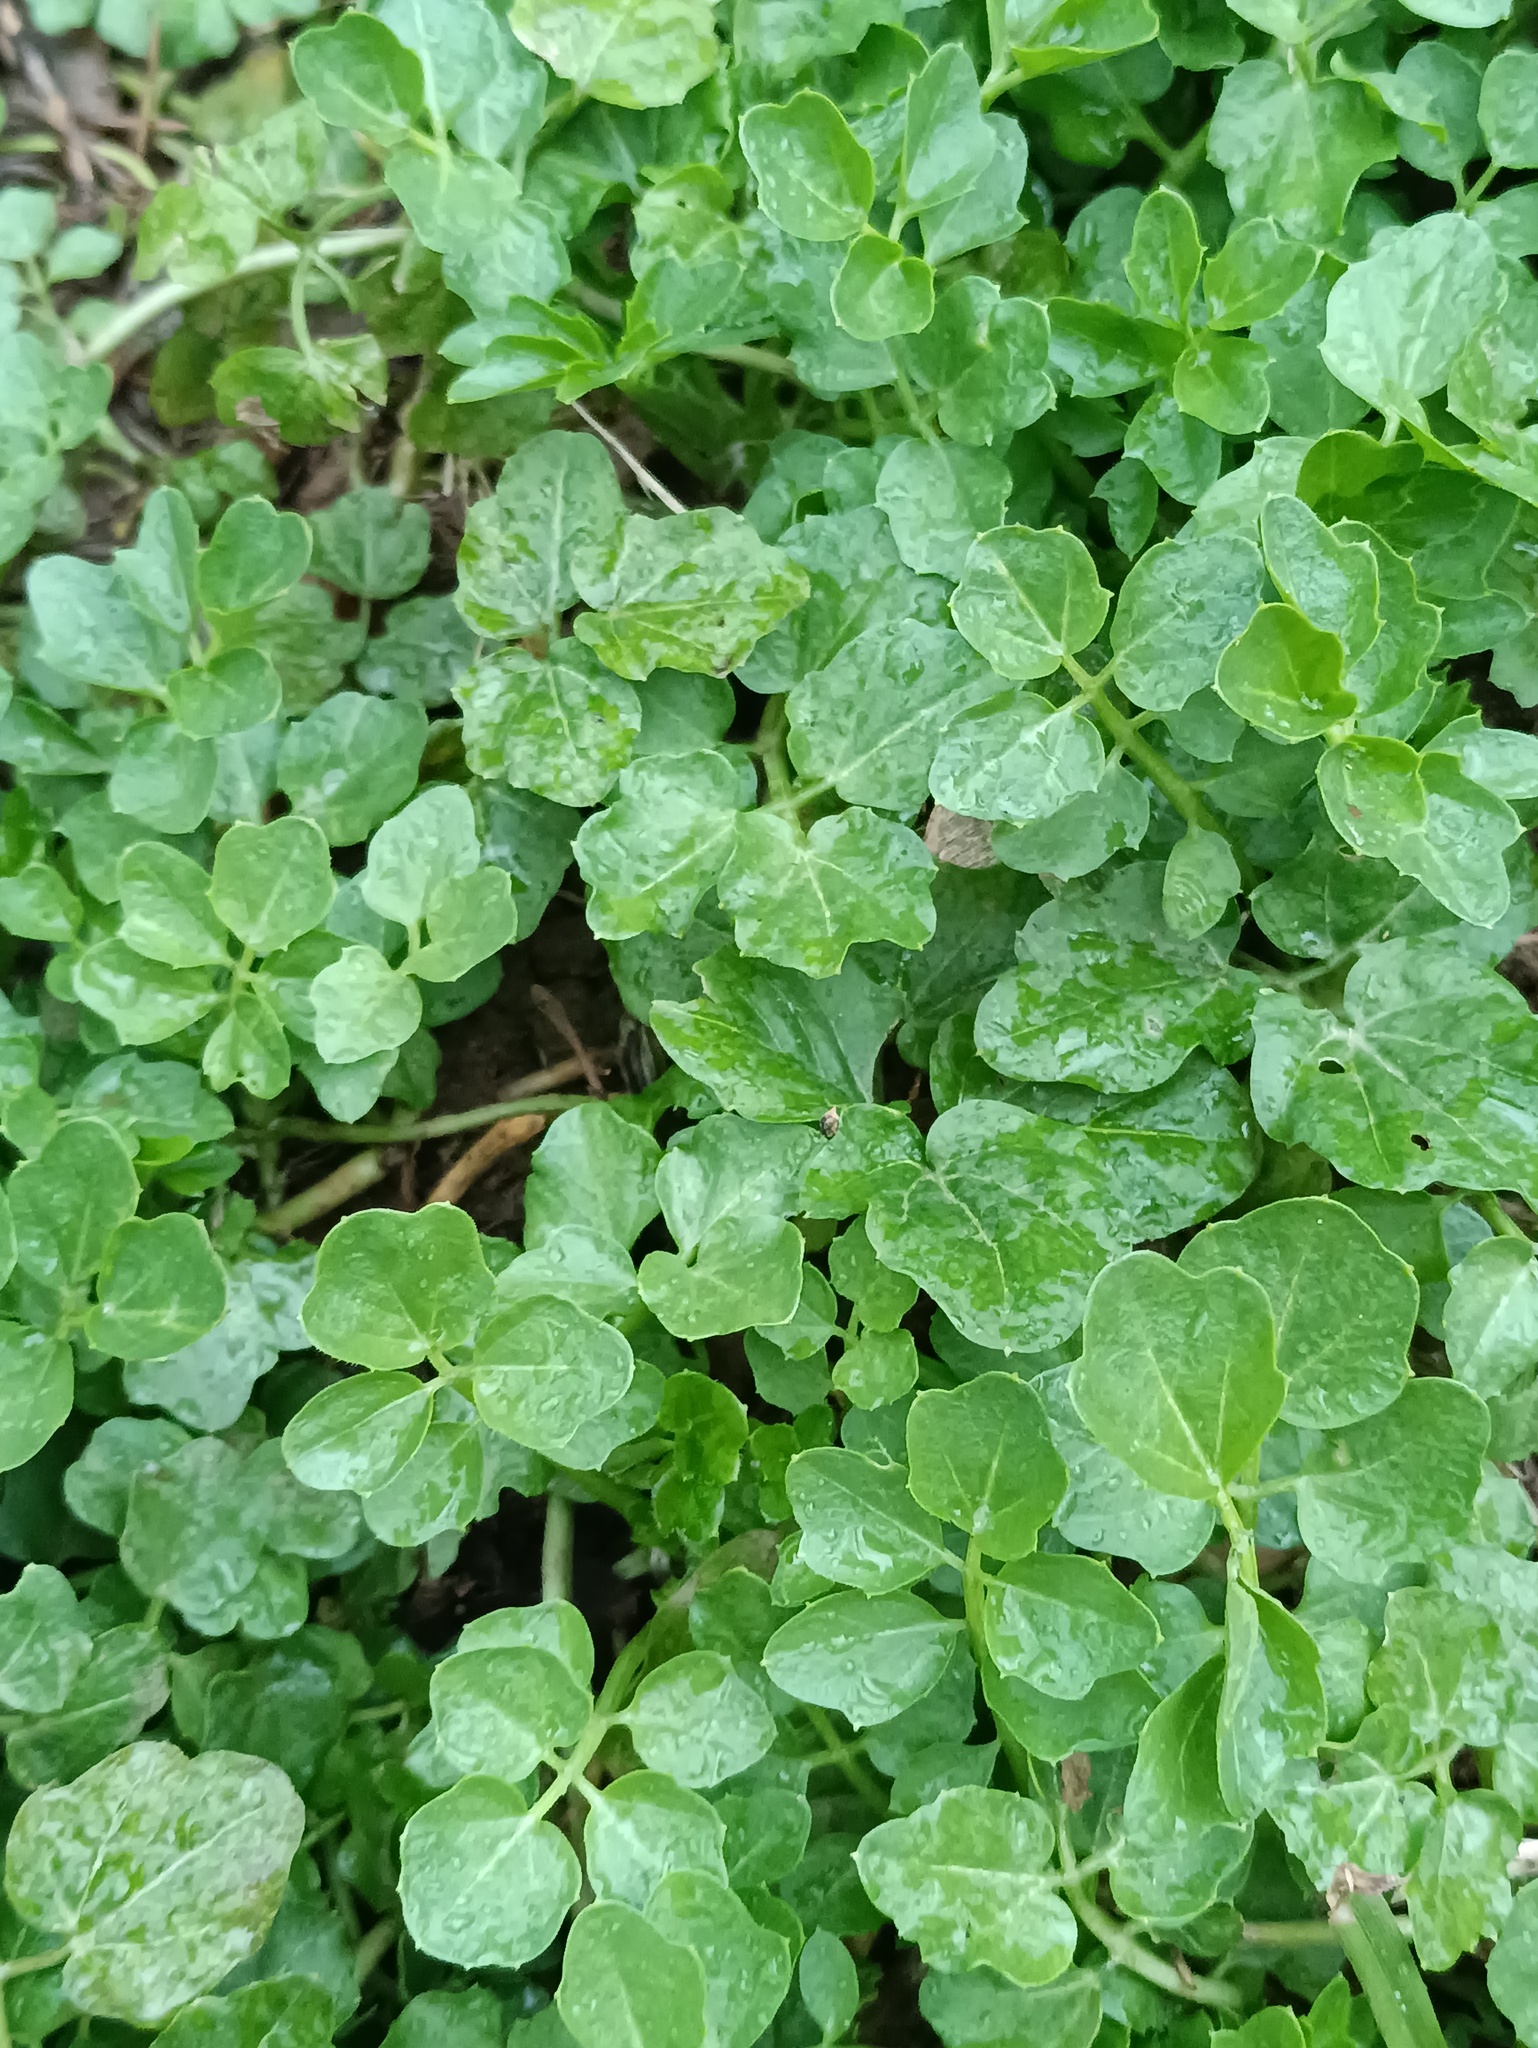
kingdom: Plantae
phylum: Tracheophyta
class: Magnoliopsida
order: Brassicales
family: Brassicaceae
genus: Cardamine
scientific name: Cardamine amara
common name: Large bitter-cress
